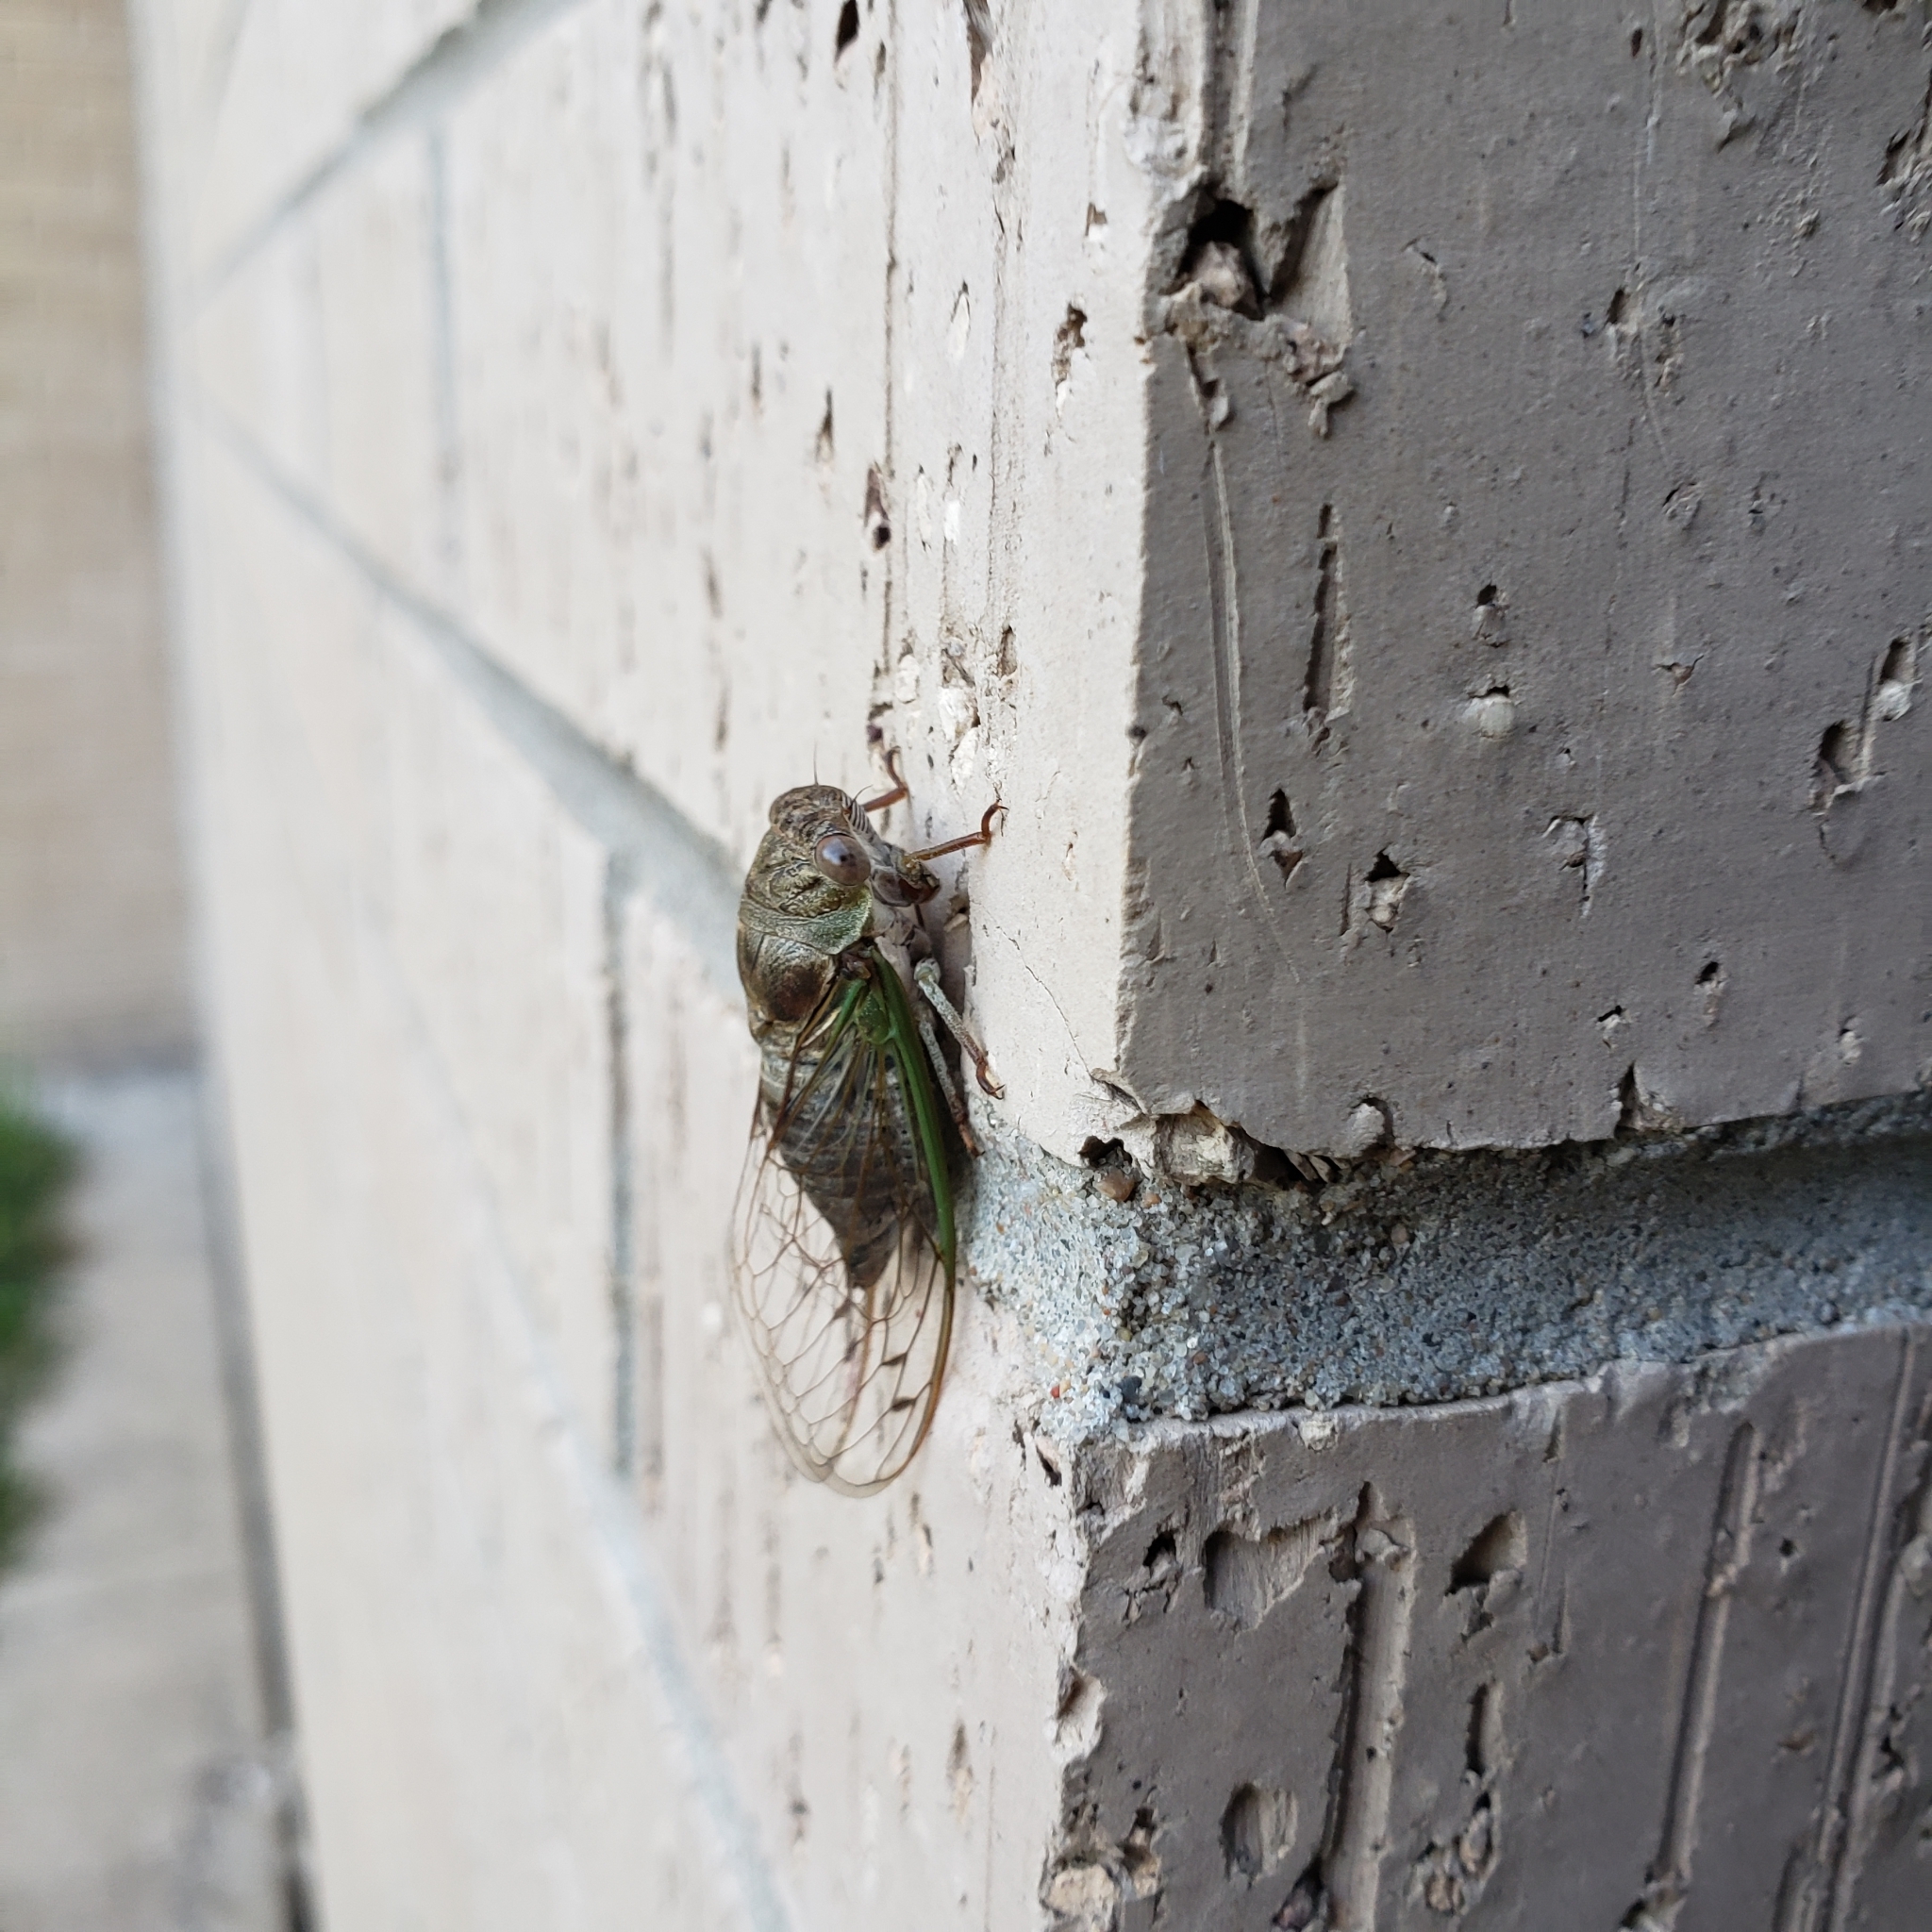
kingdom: Animalia
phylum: Arthropoda
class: Insecta
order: Hemiptera
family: Cicadidae
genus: Neotibicen
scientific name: Neotibicen aurifer
